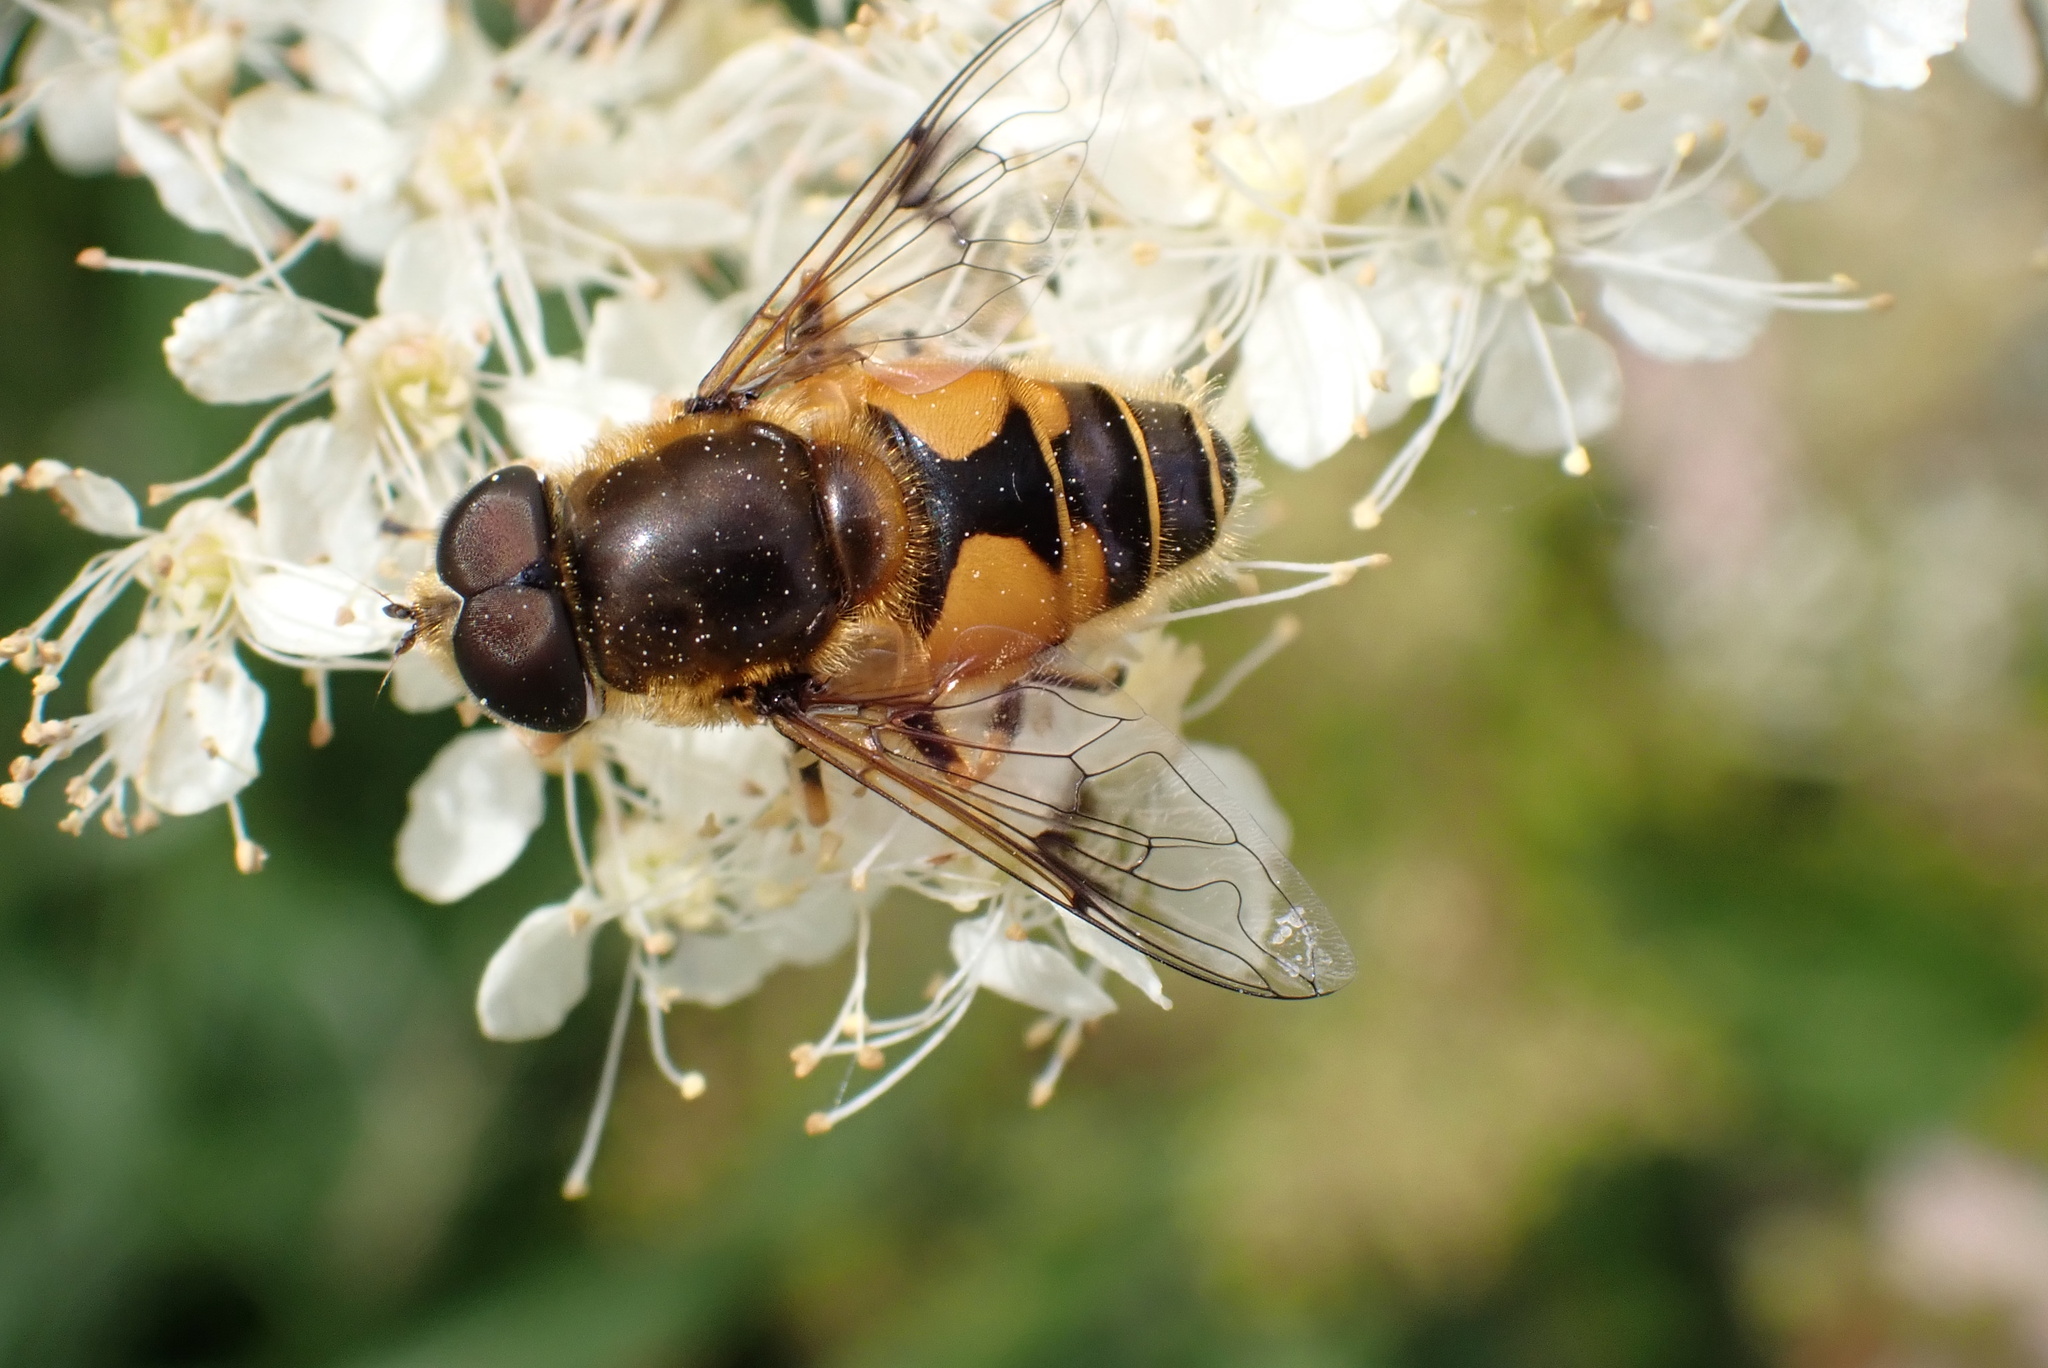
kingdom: Animalia
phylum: Arthropoda
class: Insecta
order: Diptera
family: Syrphidae
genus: Cheilosia
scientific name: Cheilosia morio
